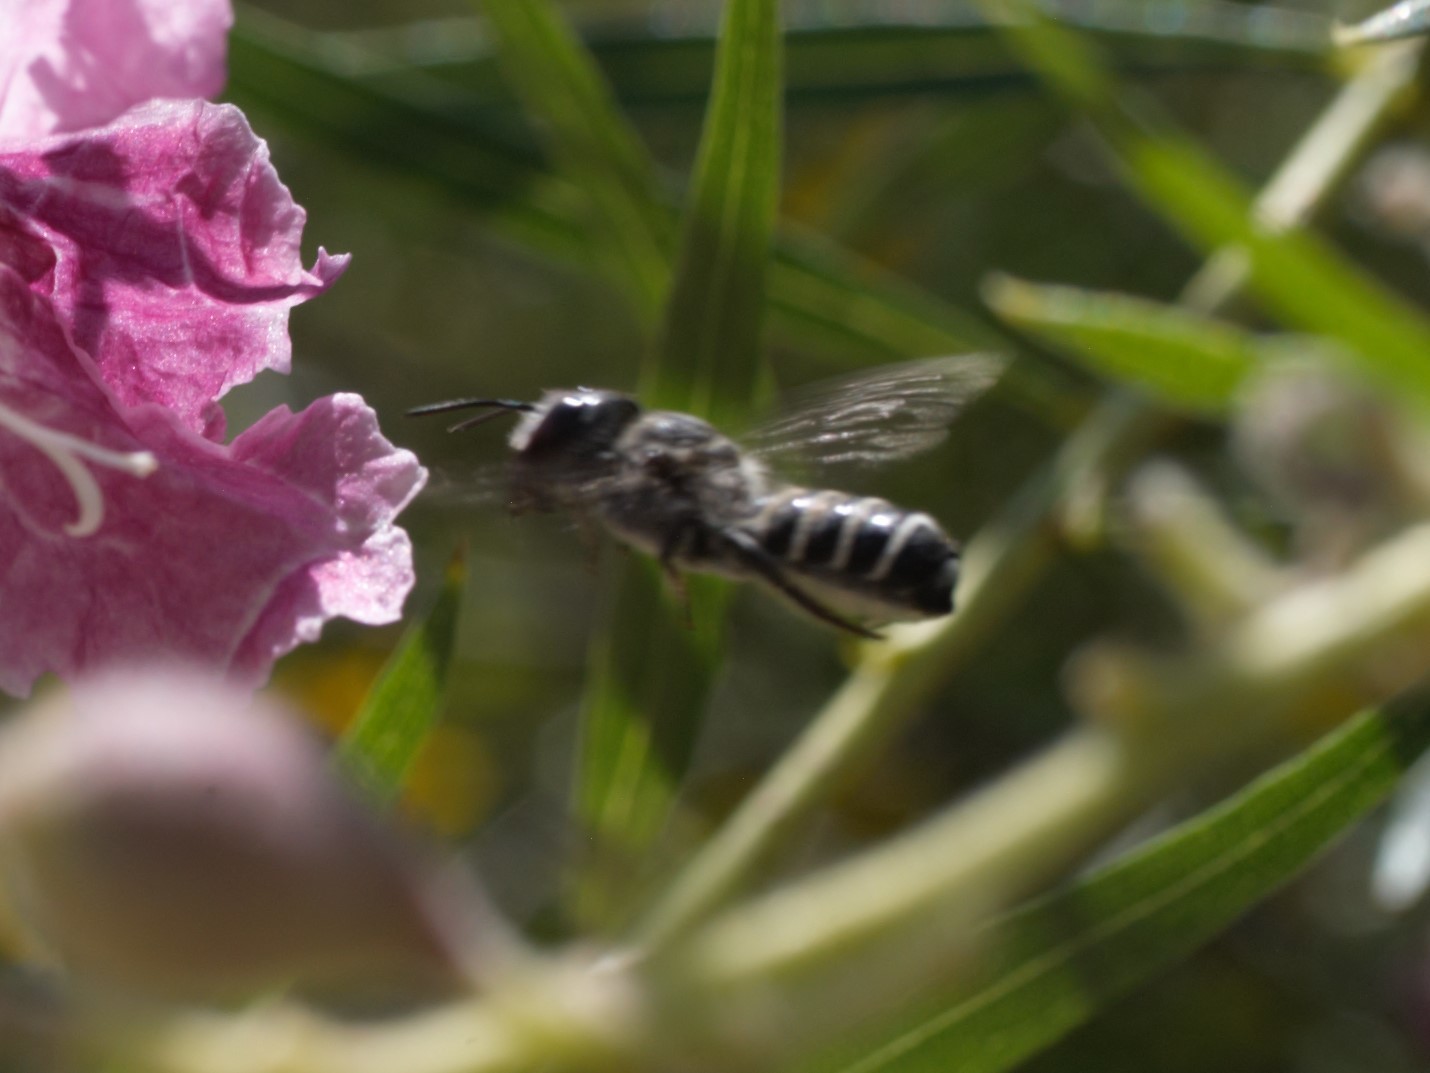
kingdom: Animalia
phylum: Arthropoda
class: Insecta
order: Hymenoptera
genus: Chelostomoides
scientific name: Chelostomoides
